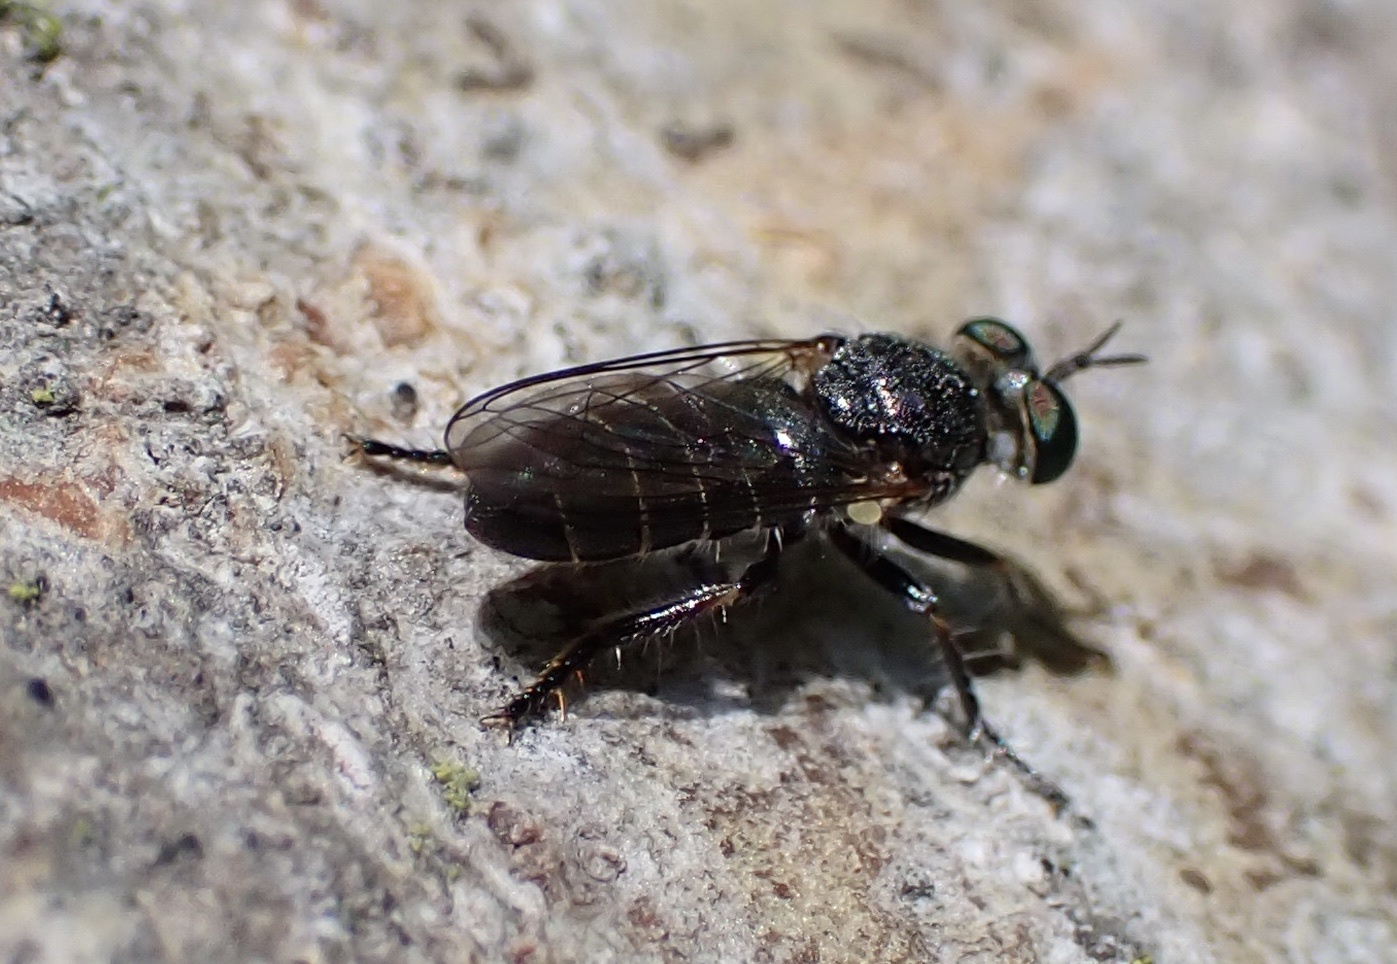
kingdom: Animalia
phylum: Arthropoda
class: Insecta
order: Diptera
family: Asilidae
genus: Atomosia
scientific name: Atomosia puella
